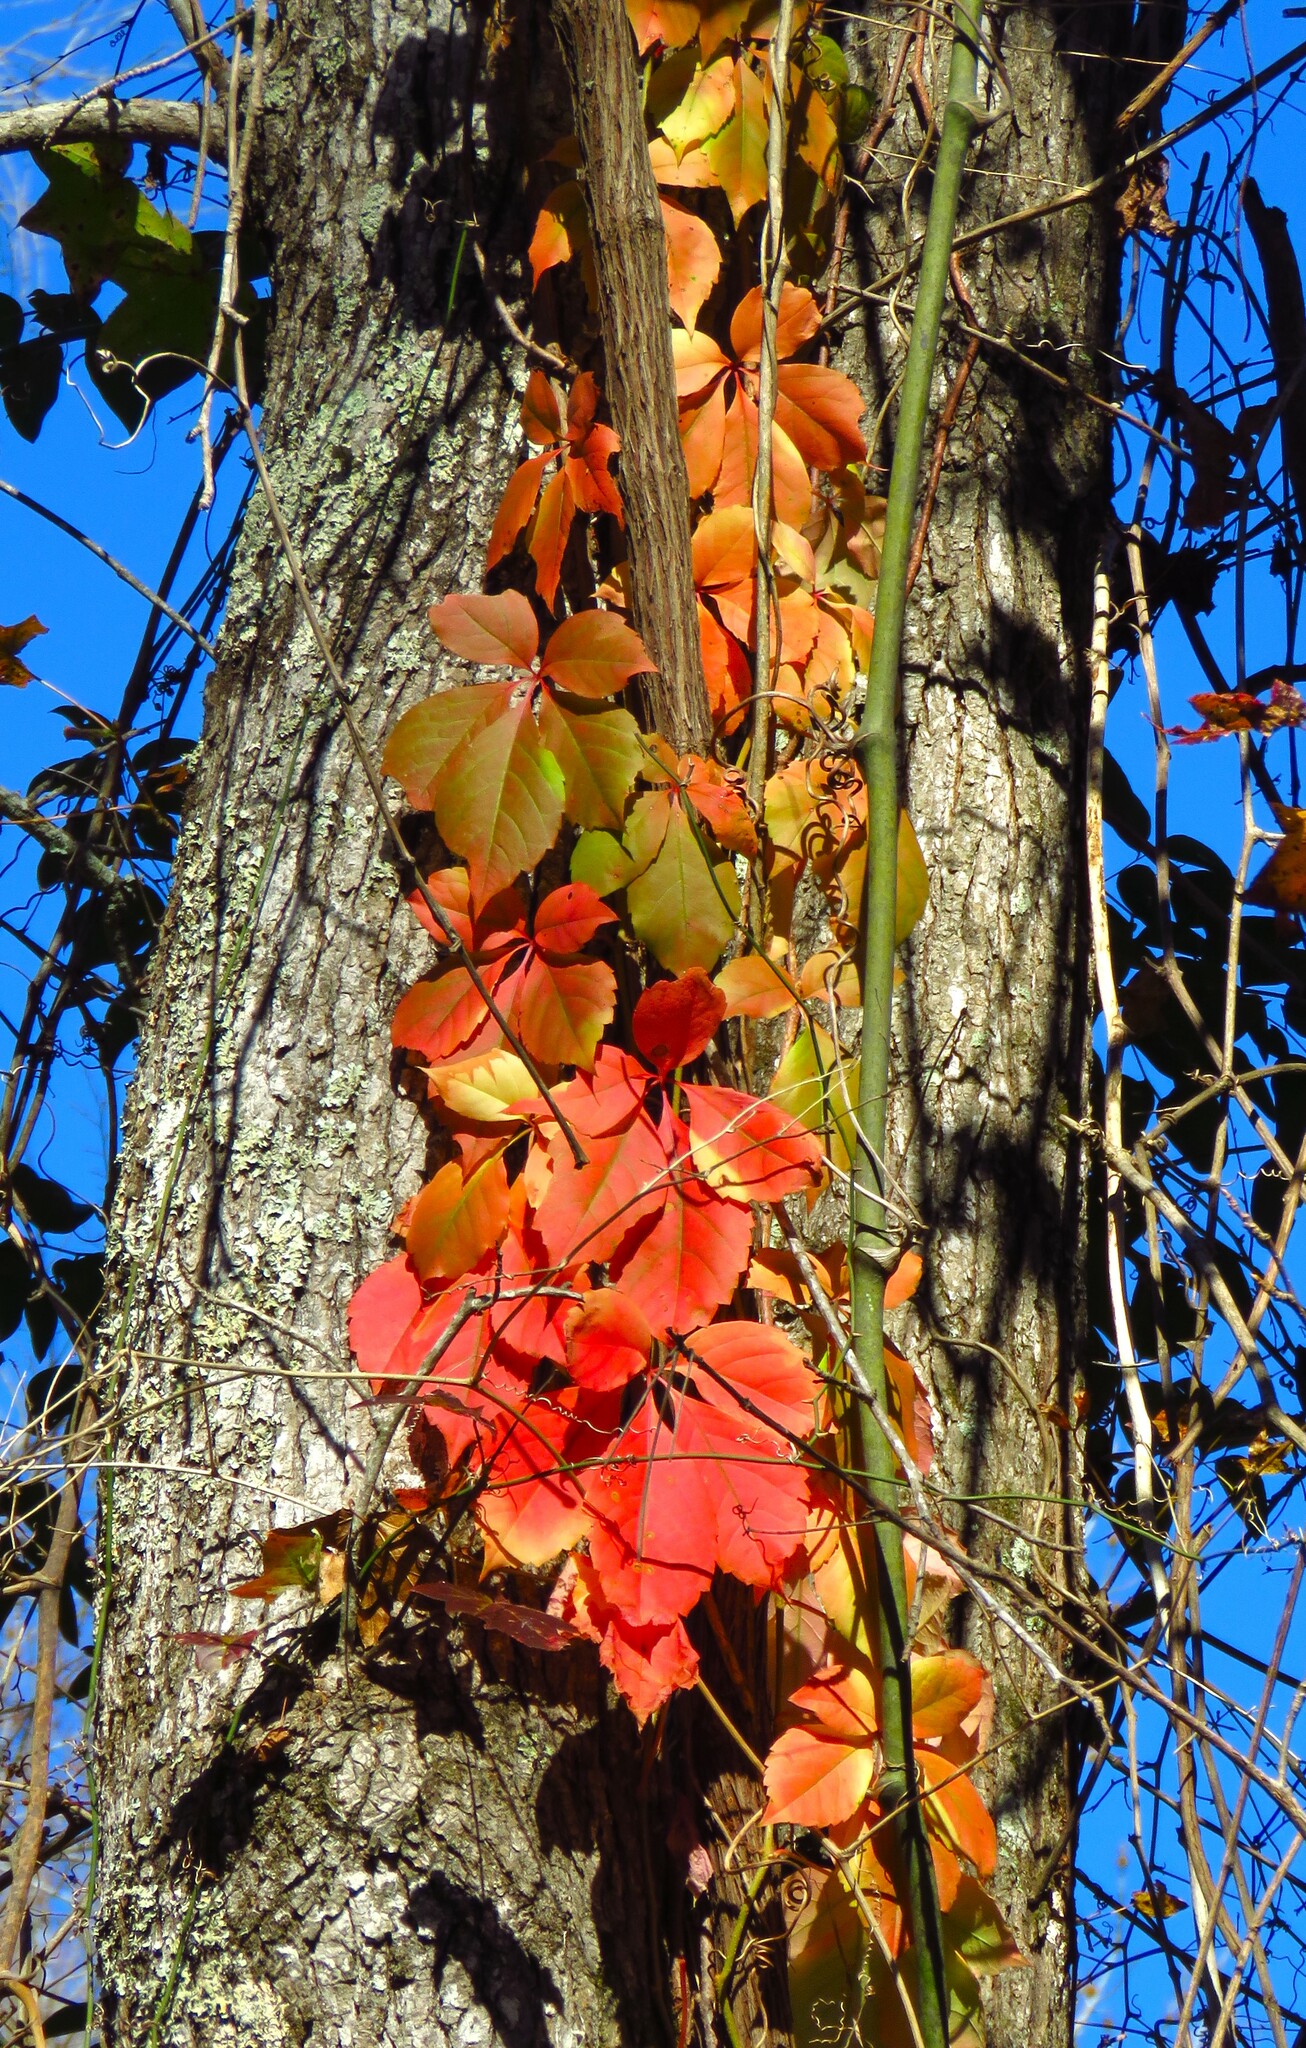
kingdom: Plantae
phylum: Tracheophyta
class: Magnoliopsida
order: Vitales
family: Vitaceae
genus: Parthenocissus
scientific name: Parthenocissus quinquefolia
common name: Virginia-creeper
